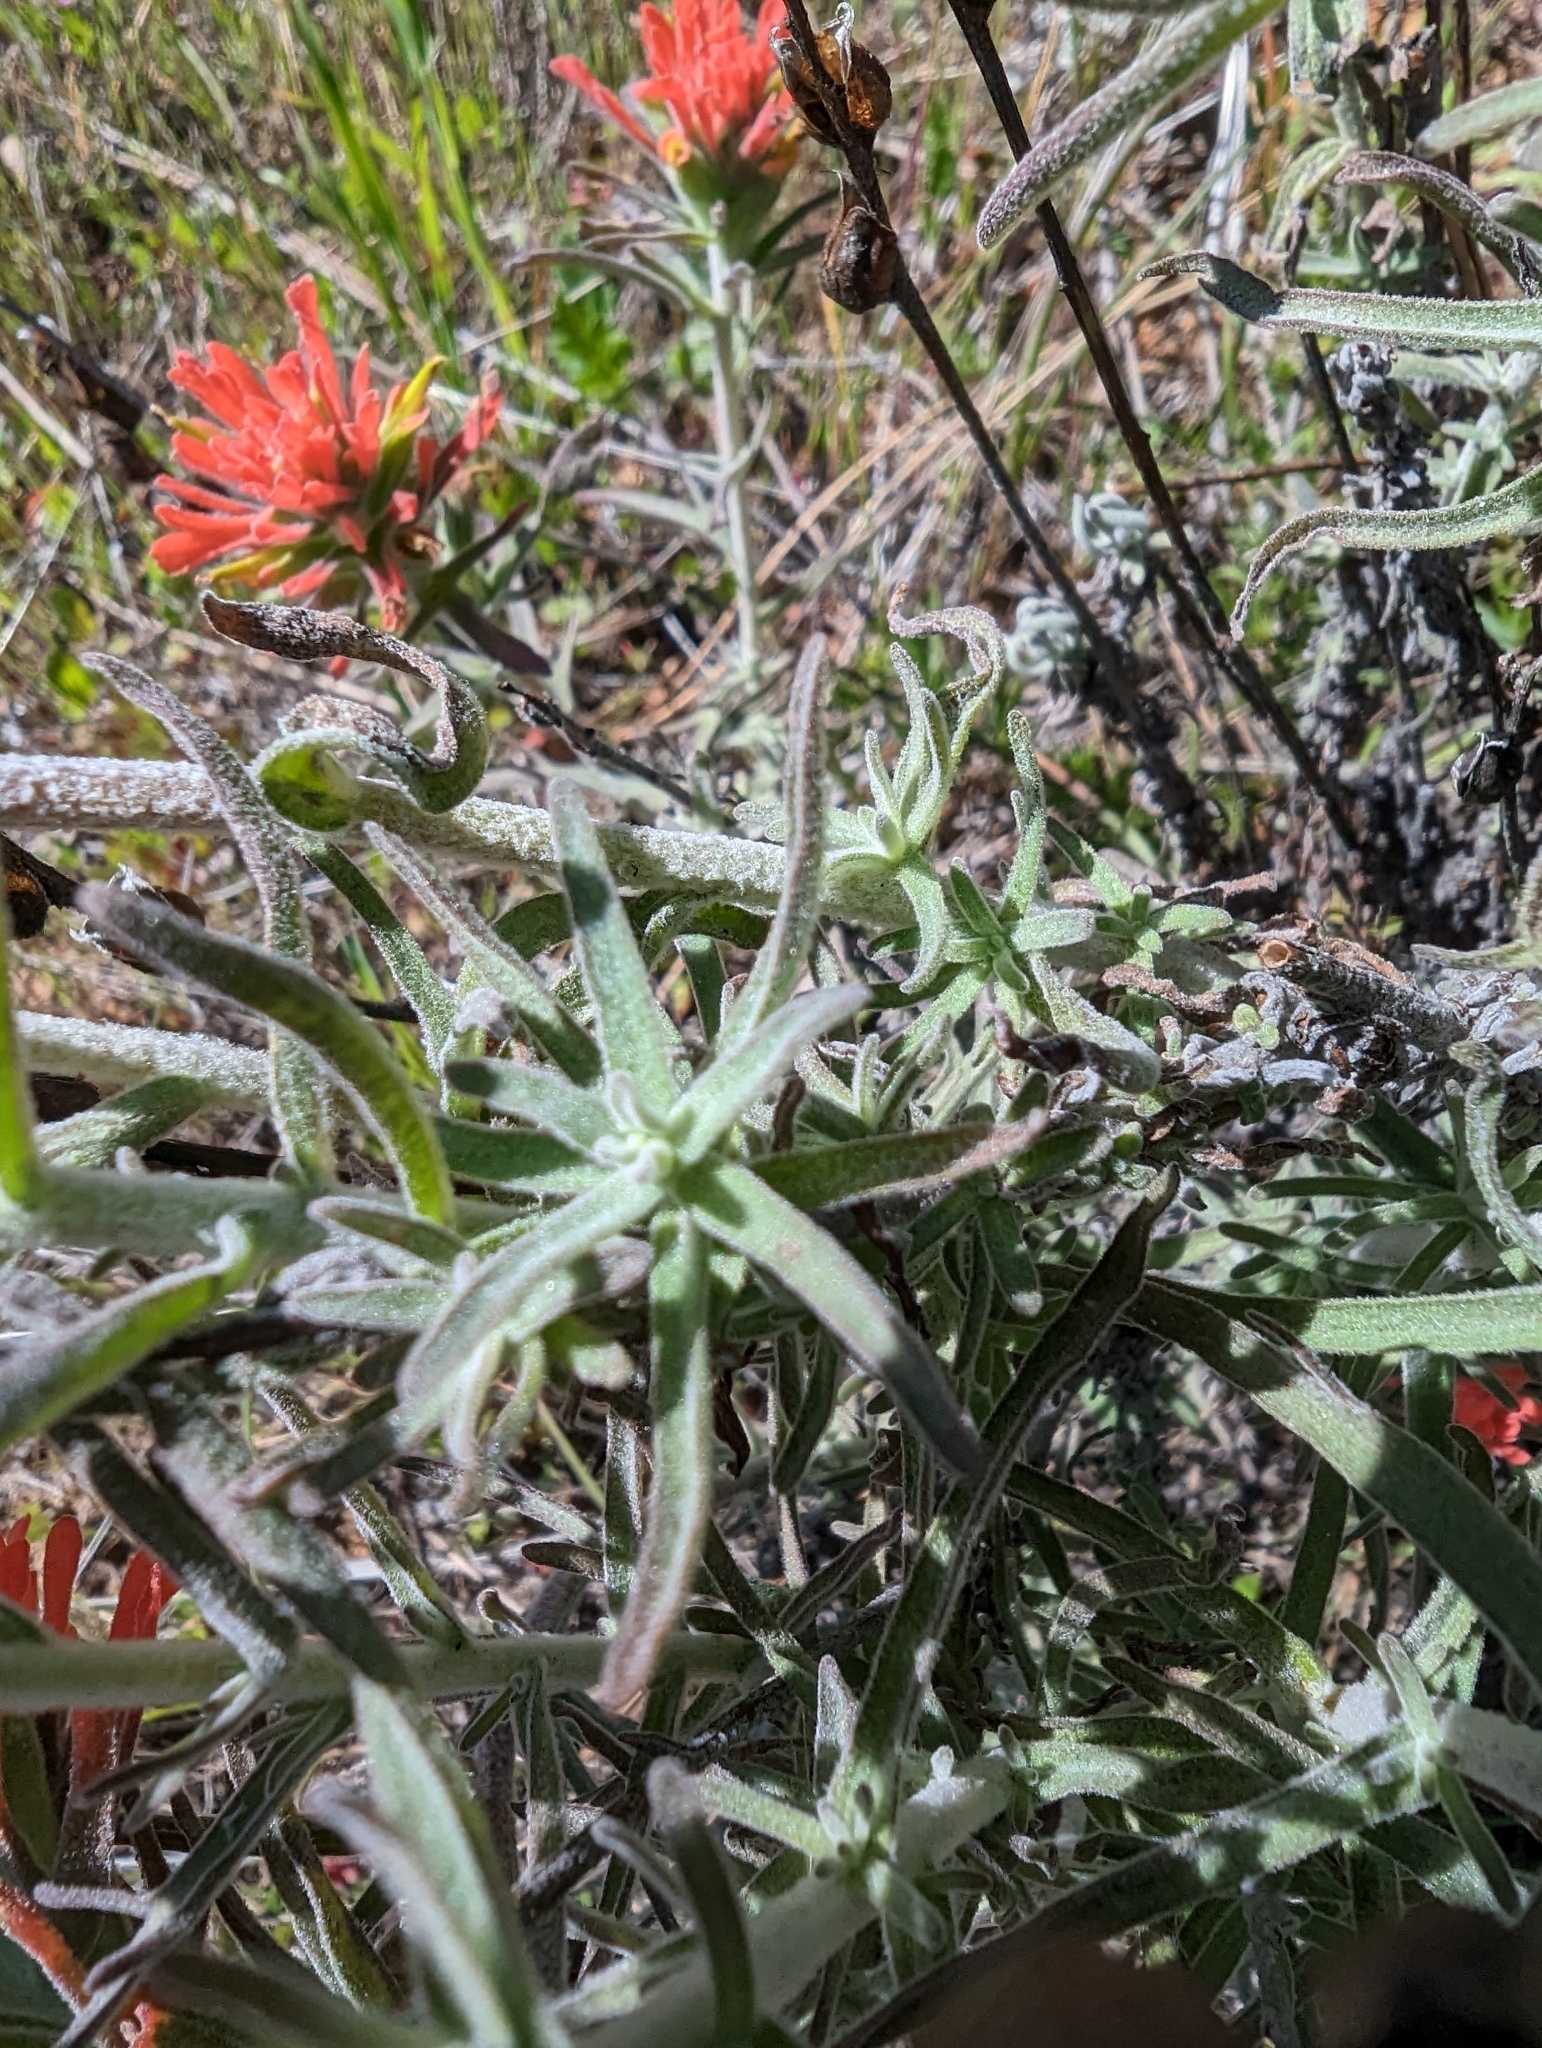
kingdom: Plantae
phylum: Tracheophyta
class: Magnoliopsida
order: Lamiales
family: Orobanchaceae
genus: Castilleja
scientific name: Castilleja foliolosa
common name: Woolly indian paintbrush
